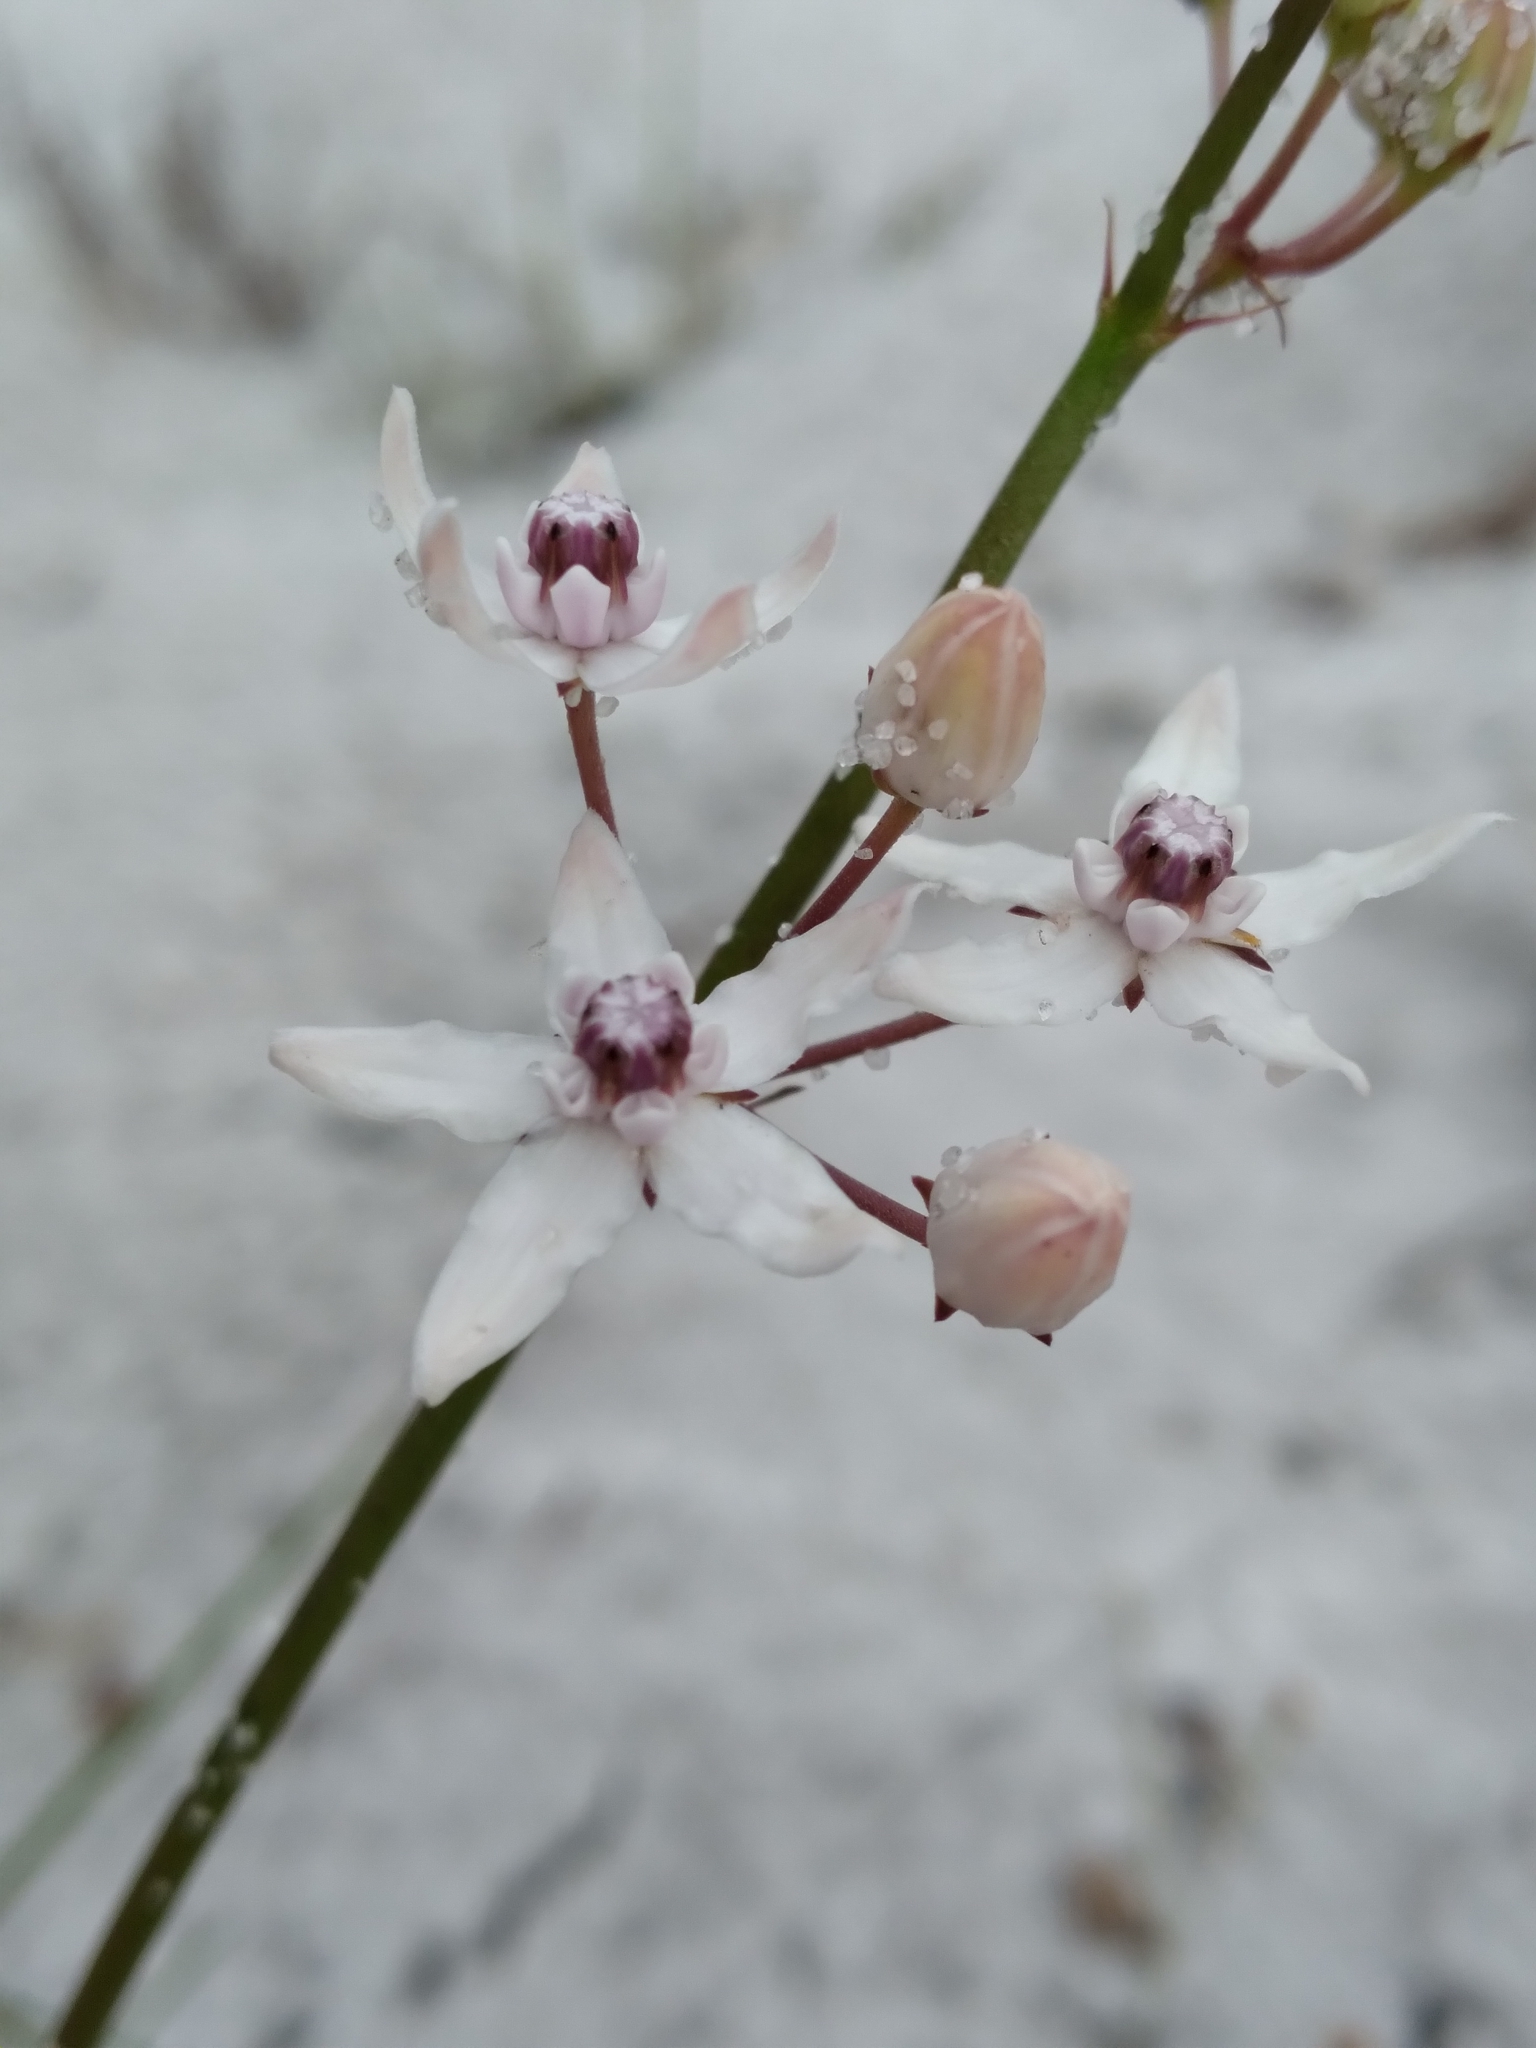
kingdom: Plantae
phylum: Tracheophyta
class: Magnoliopsida
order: Gentianales
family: Apocynaceae
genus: Asclepias
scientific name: Asclepias feayi
